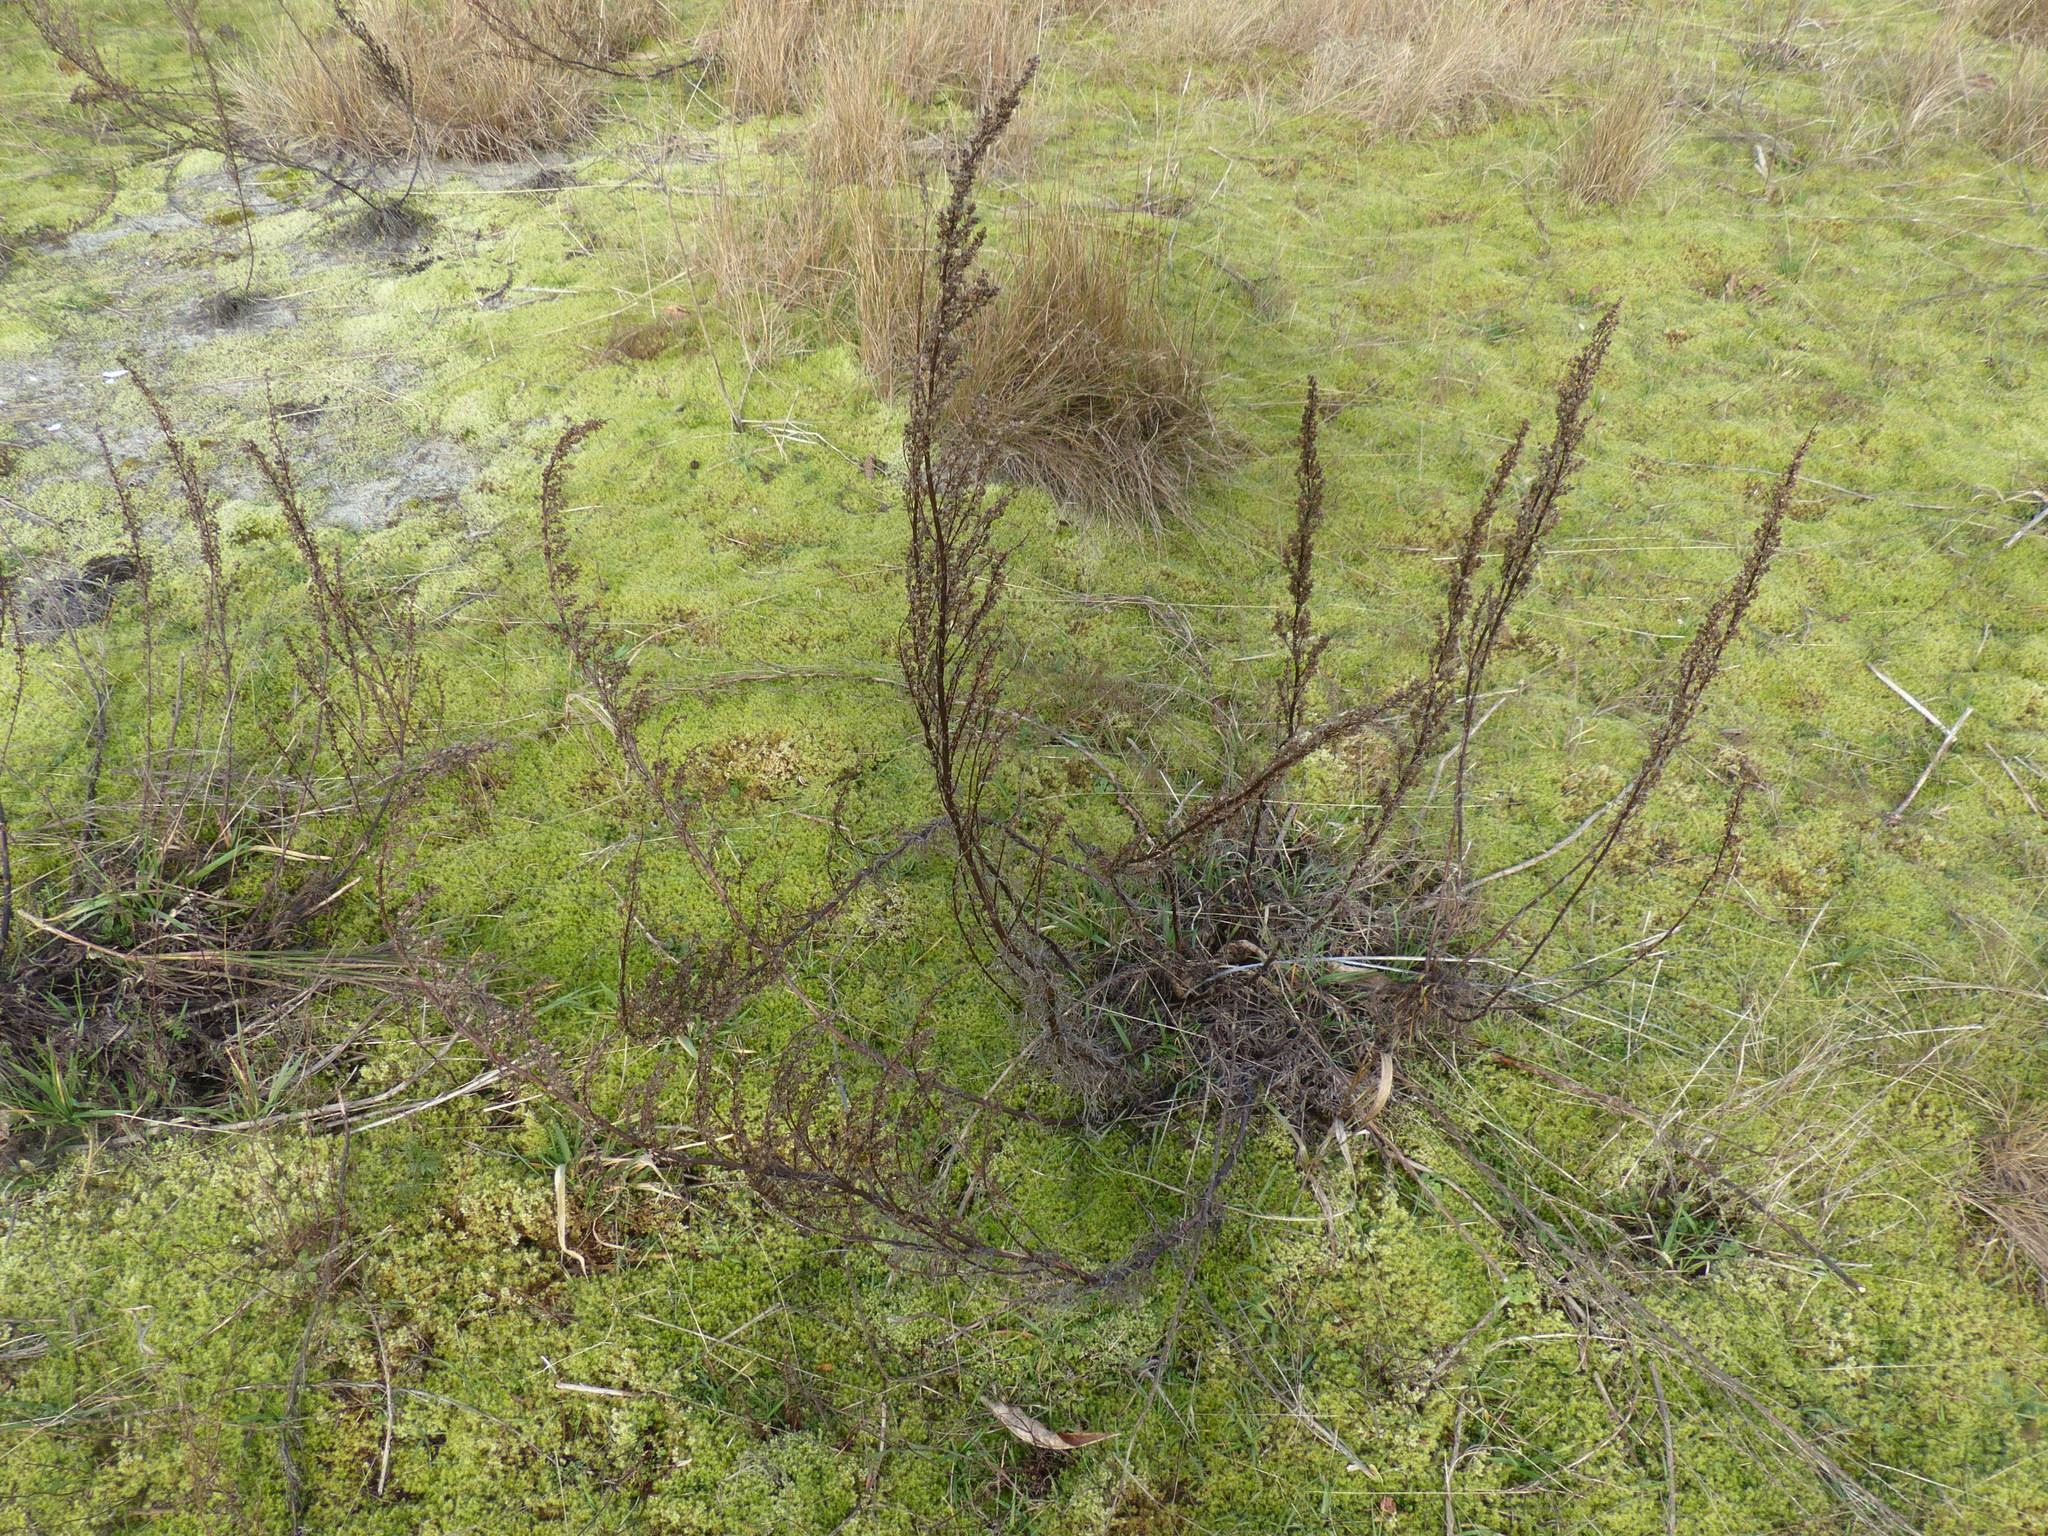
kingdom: Plantae
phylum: Tracheophyta
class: Magnoliopsida
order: Asterales
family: Asteraceae
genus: Artemisia
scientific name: Artemisia campestris
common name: Field wormwood
